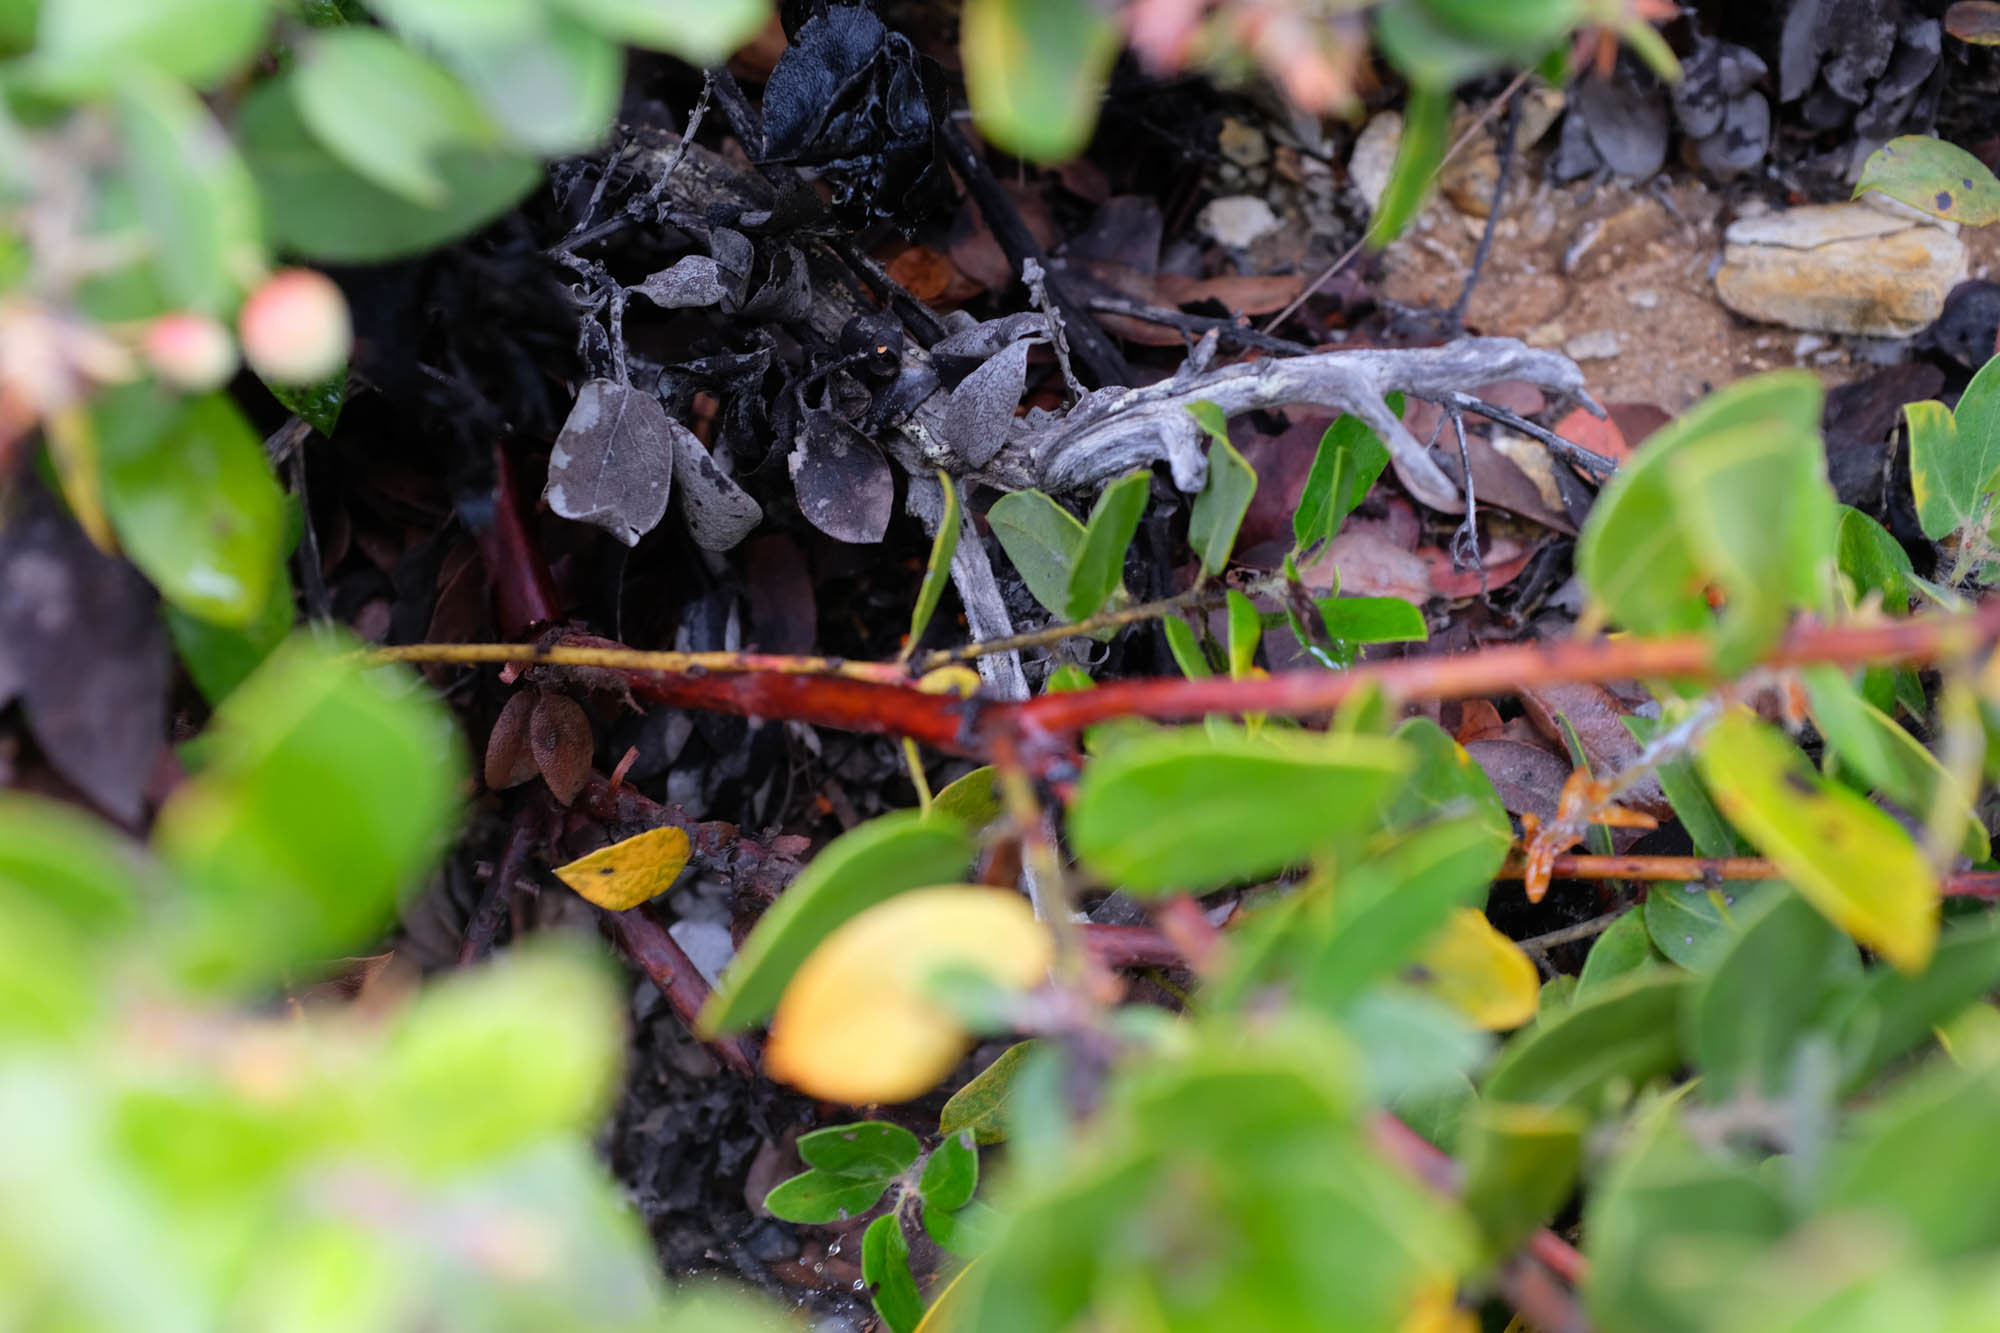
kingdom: Plantae
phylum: Tracheophyta
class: Magnoliopsida
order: Ericales
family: Ericaceae
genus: Arctostaphylos
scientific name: Arctostaphylos crustacea
